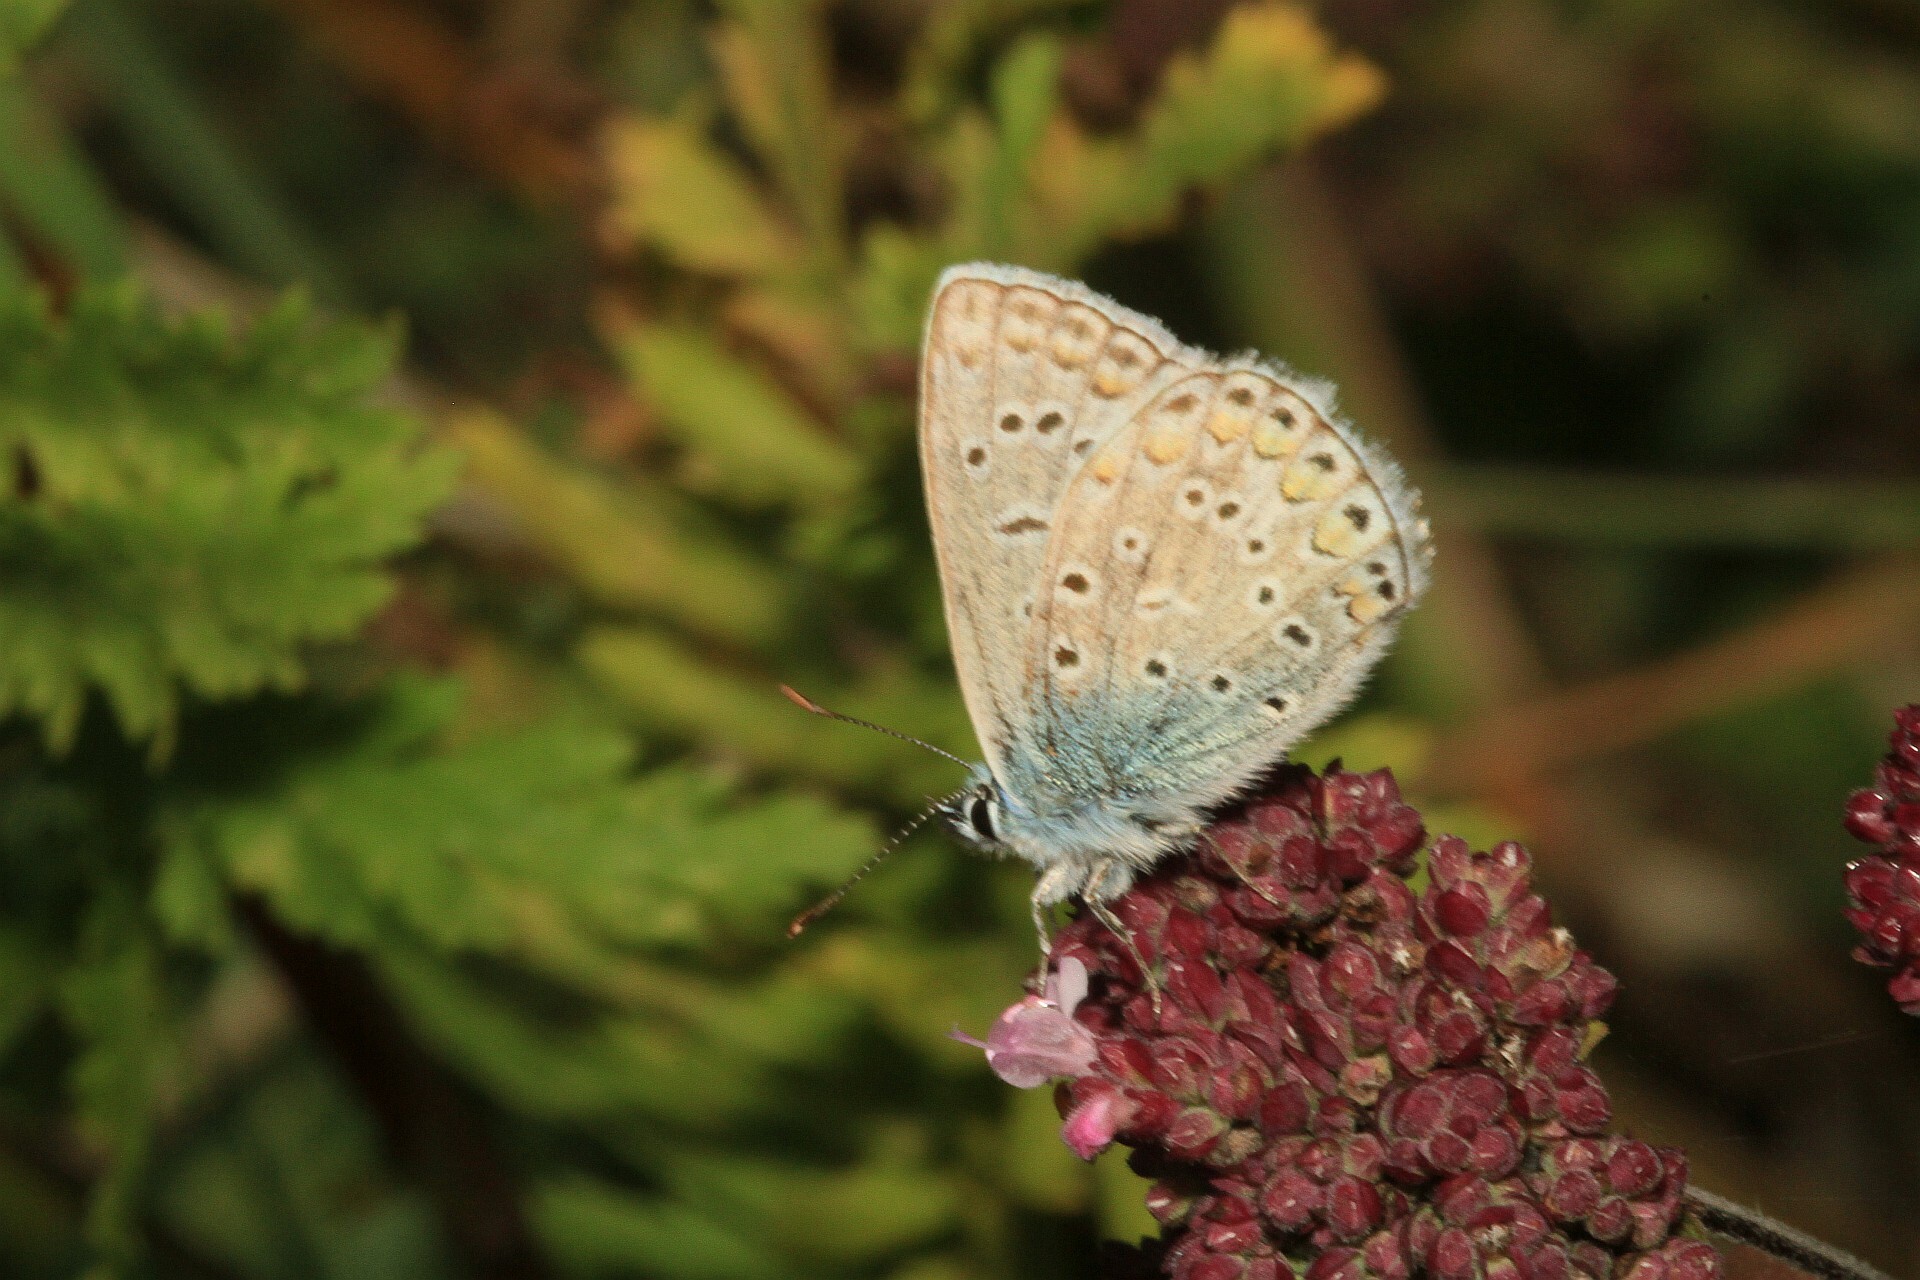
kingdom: Animalia
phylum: Arthropoda
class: Insecta
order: Lepidoptera
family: Lycaenidae
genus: Polyommatus
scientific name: Polyommatus icarus
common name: Common blue
